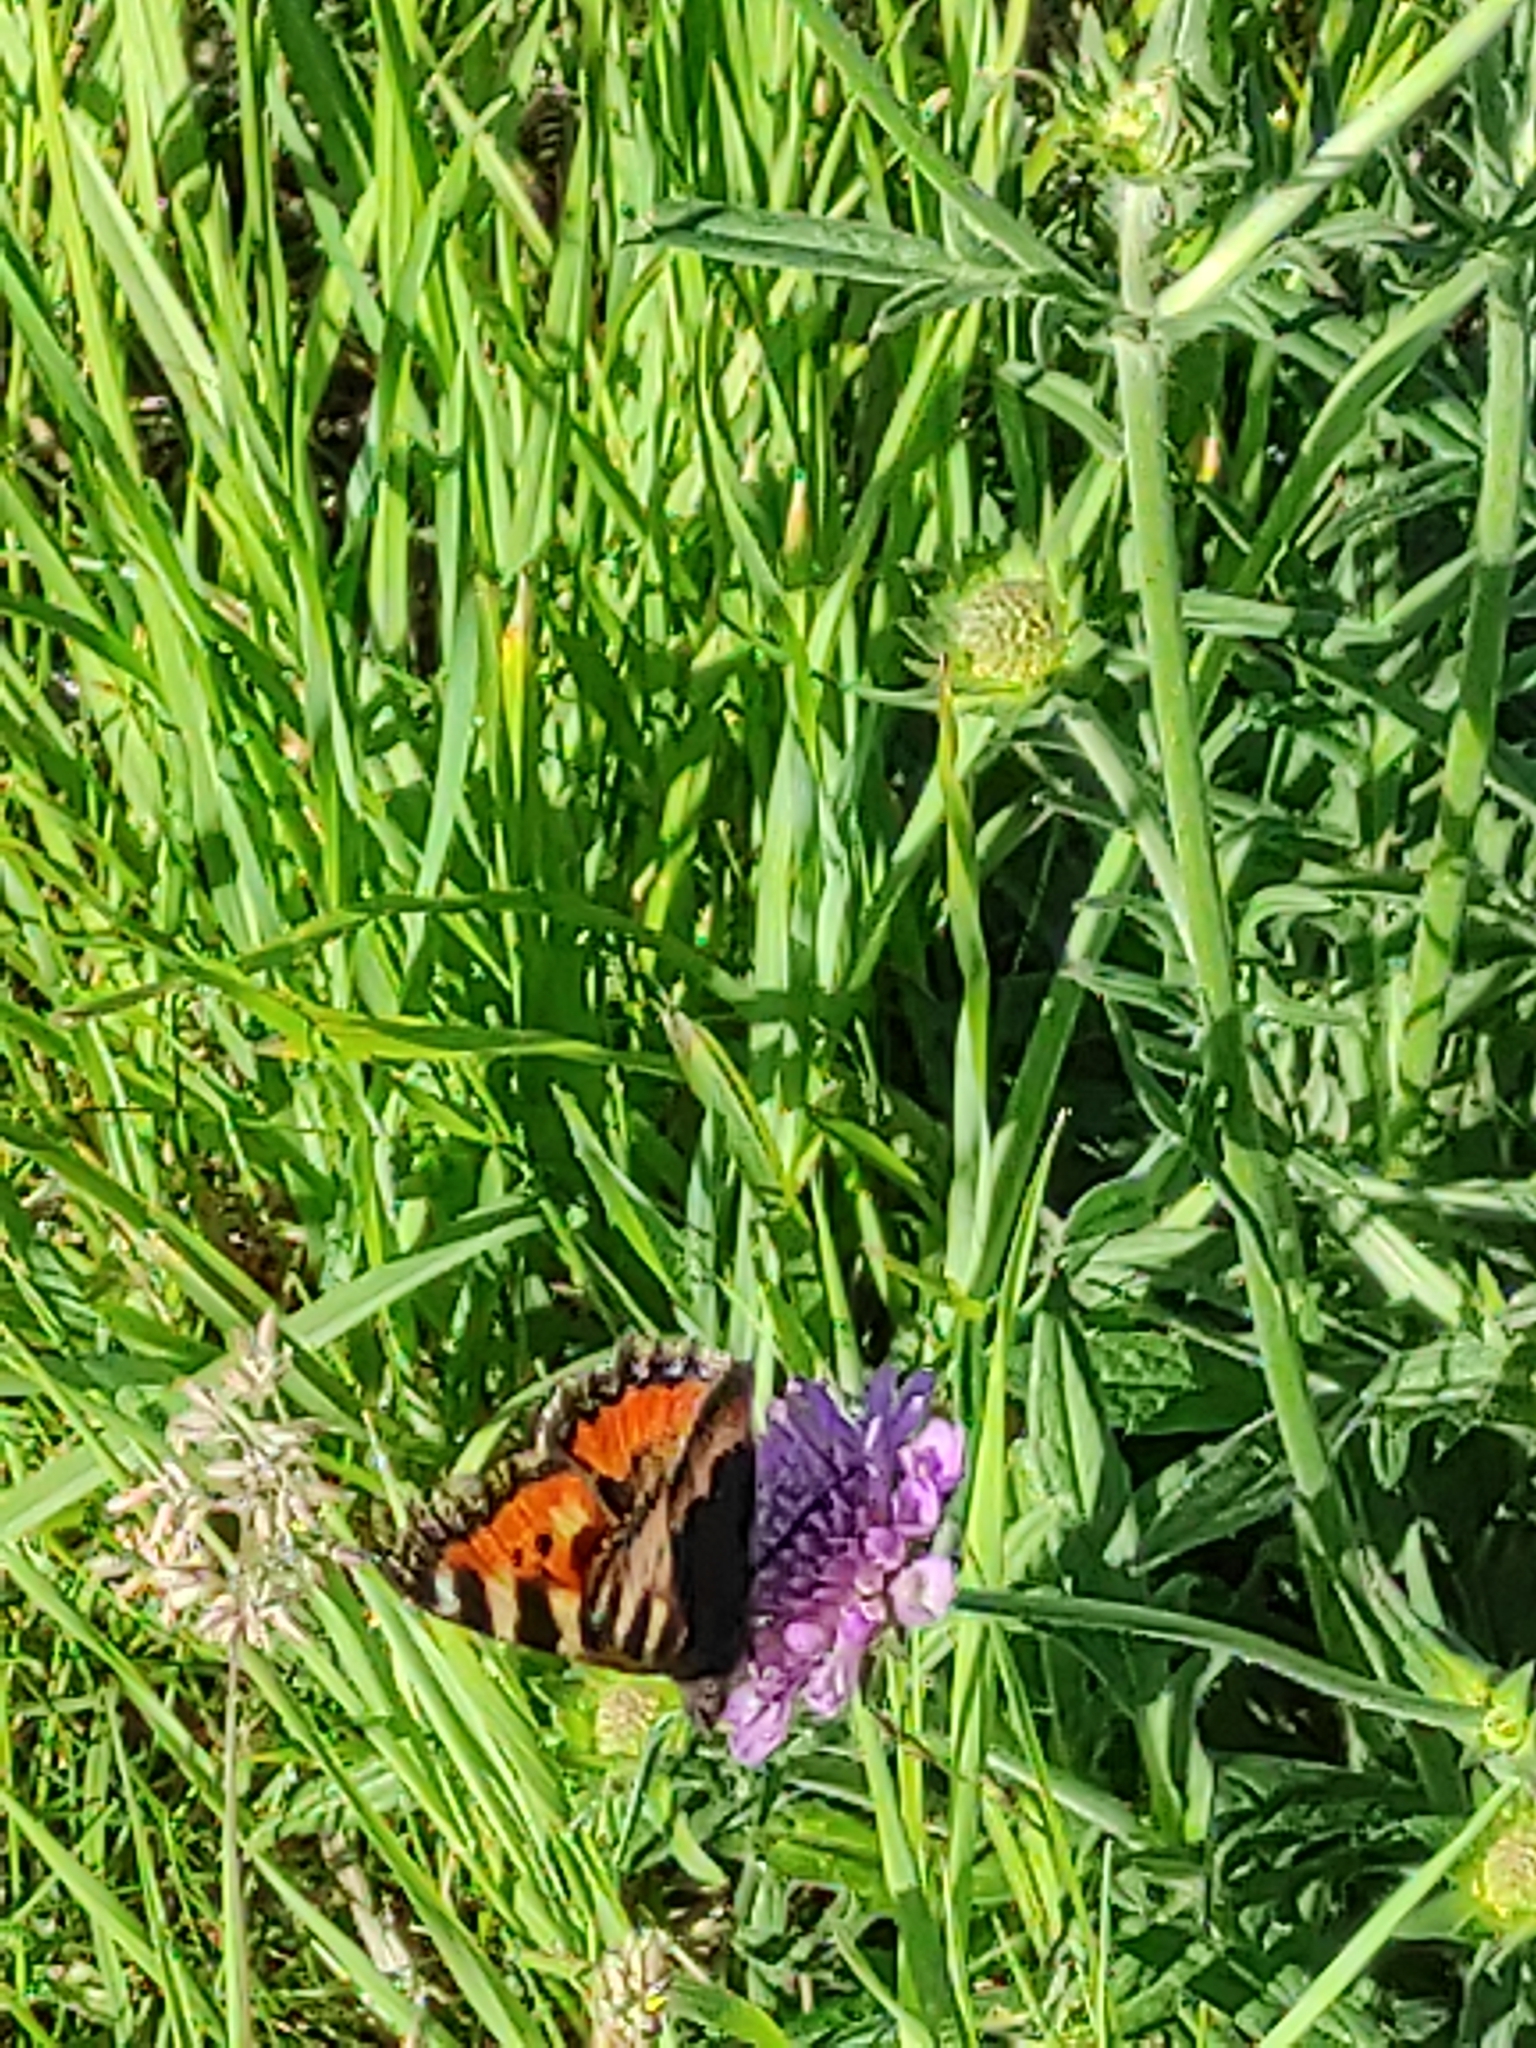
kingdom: Animalia
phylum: Arthropoda
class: Insecta
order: Lepidoptera
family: Nymphalidae
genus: Aglais
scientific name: Aglais urticae
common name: Small tortoiseshell
